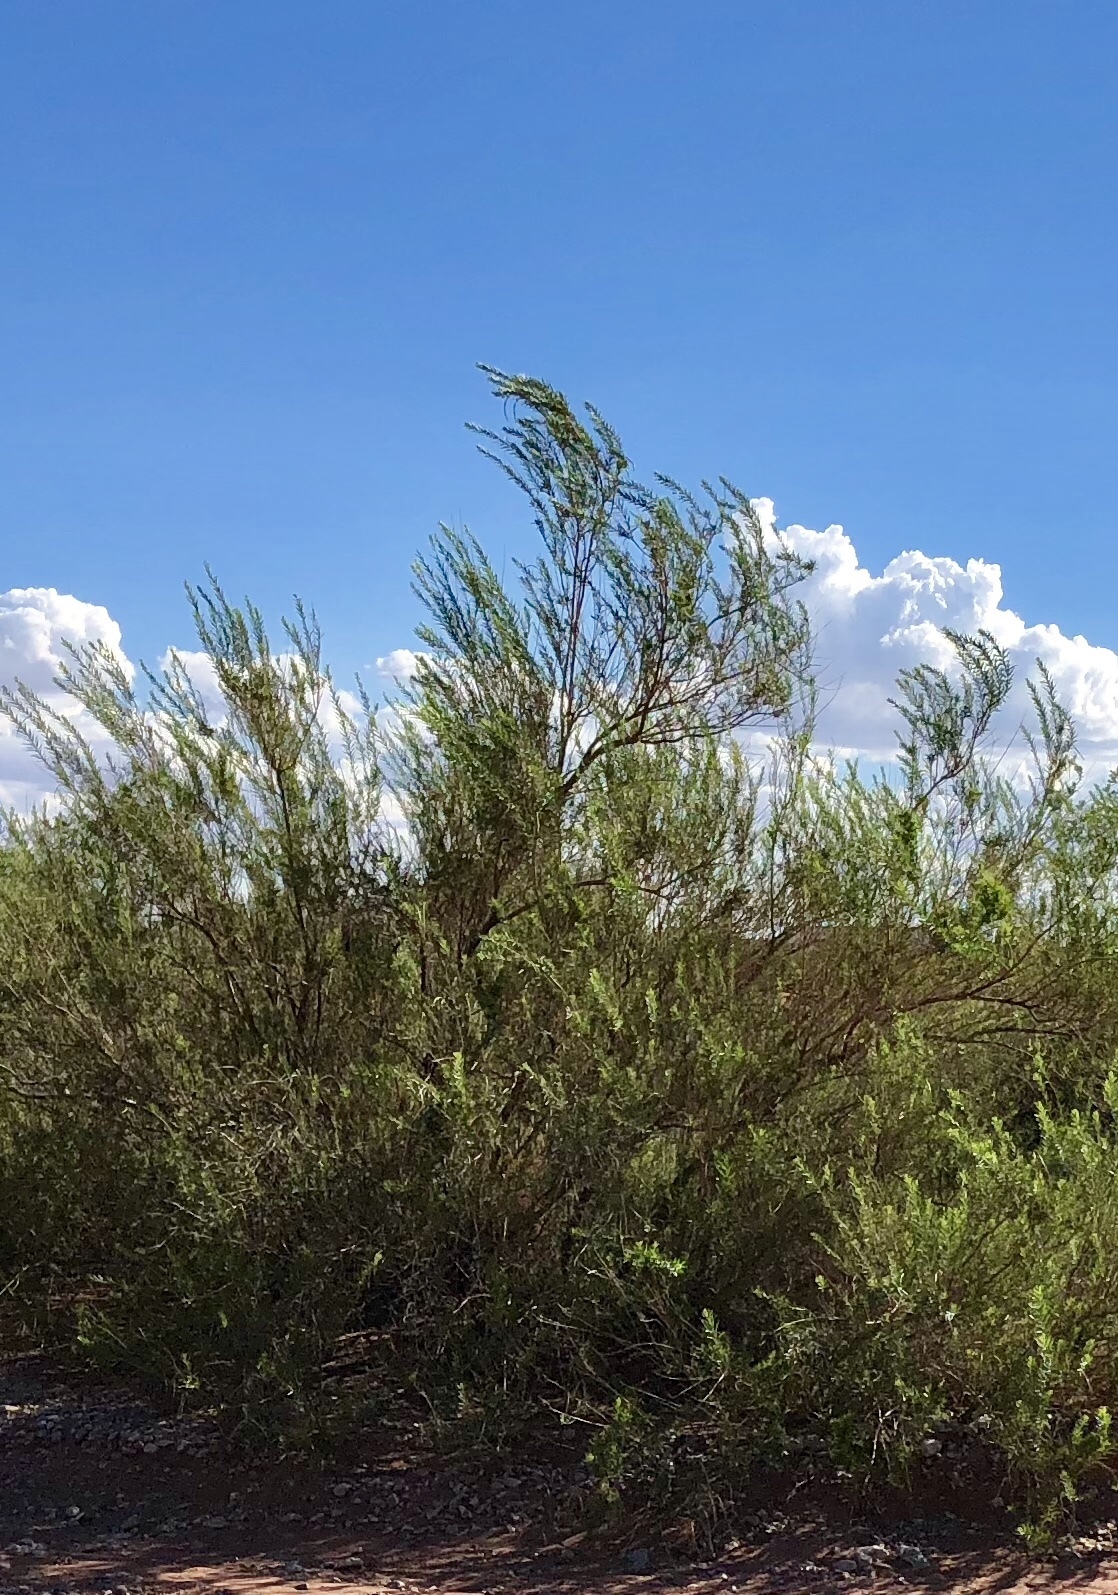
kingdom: Plantae
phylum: Tracheophyta
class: Magnoliopsida
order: Lamiales
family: Bignoniaceae
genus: Chilopsis
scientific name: Chilopsis linearis
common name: Desert-willow
